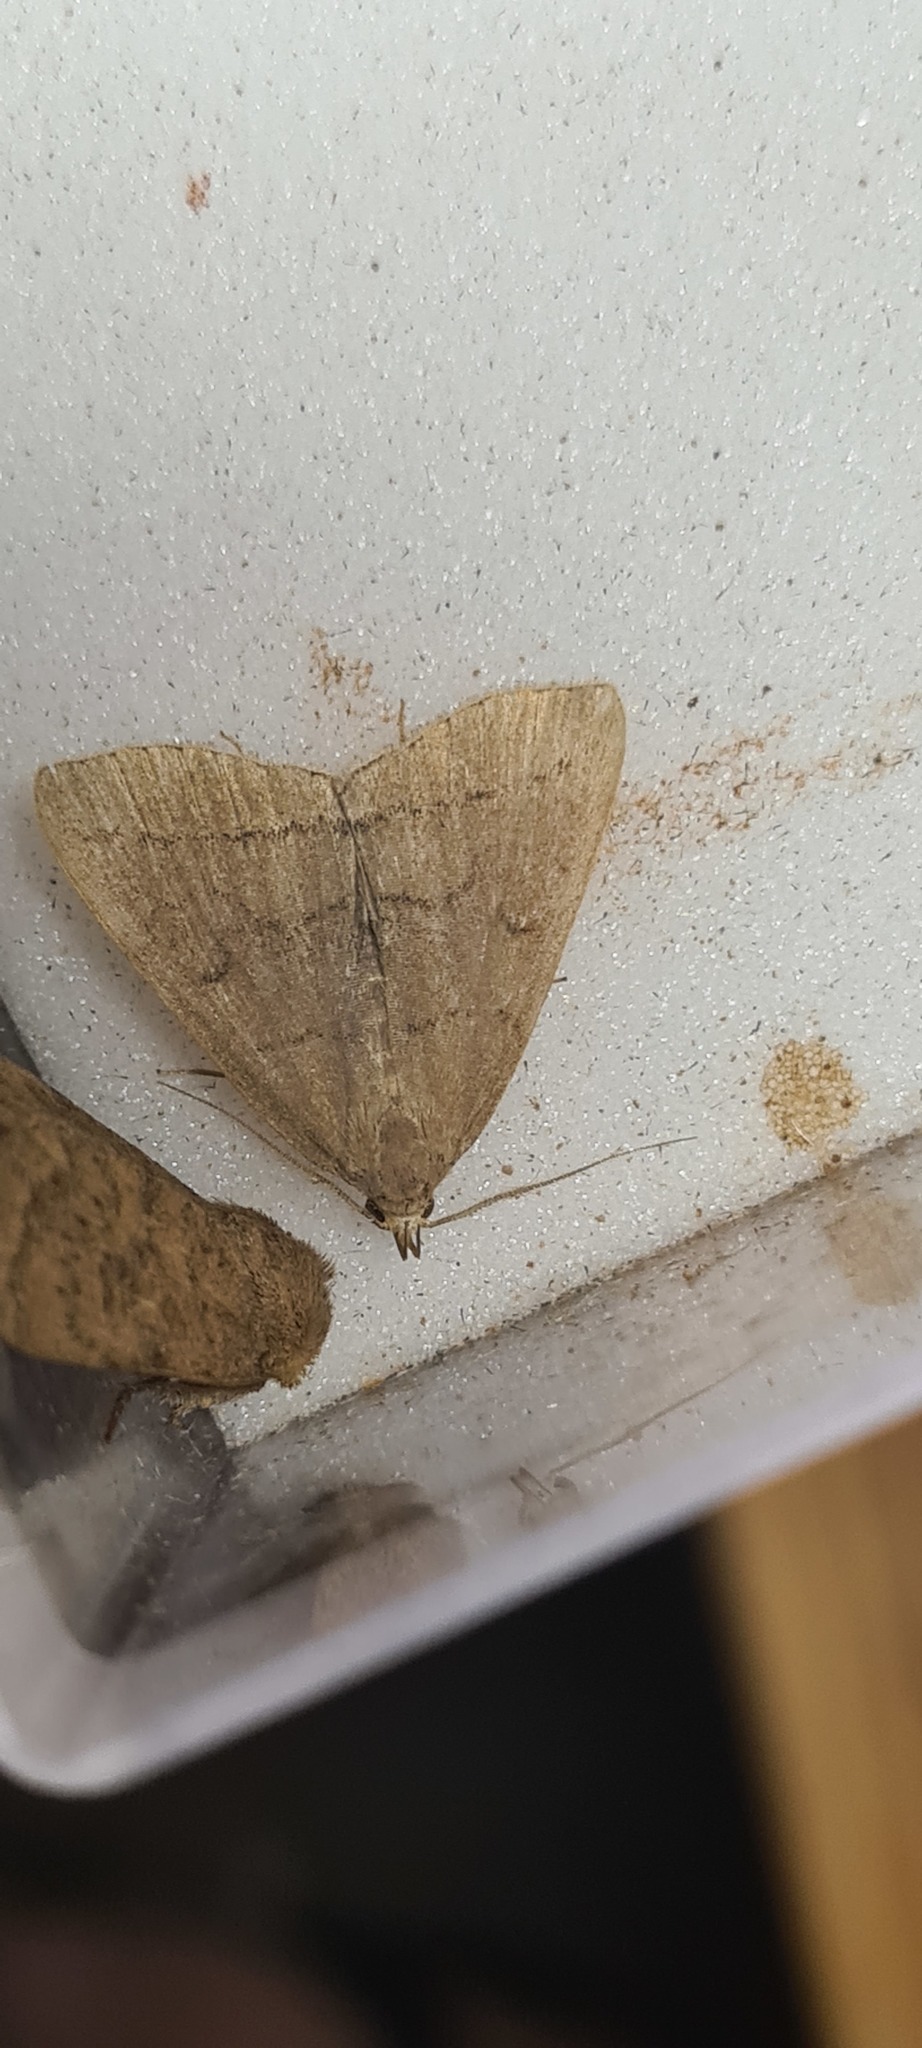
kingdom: Animalia
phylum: Arthropoda
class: Insecta
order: Lepidoptera
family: Erebidae
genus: Herminia
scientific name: Herminia tarsipennalis
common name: Fan-foot
